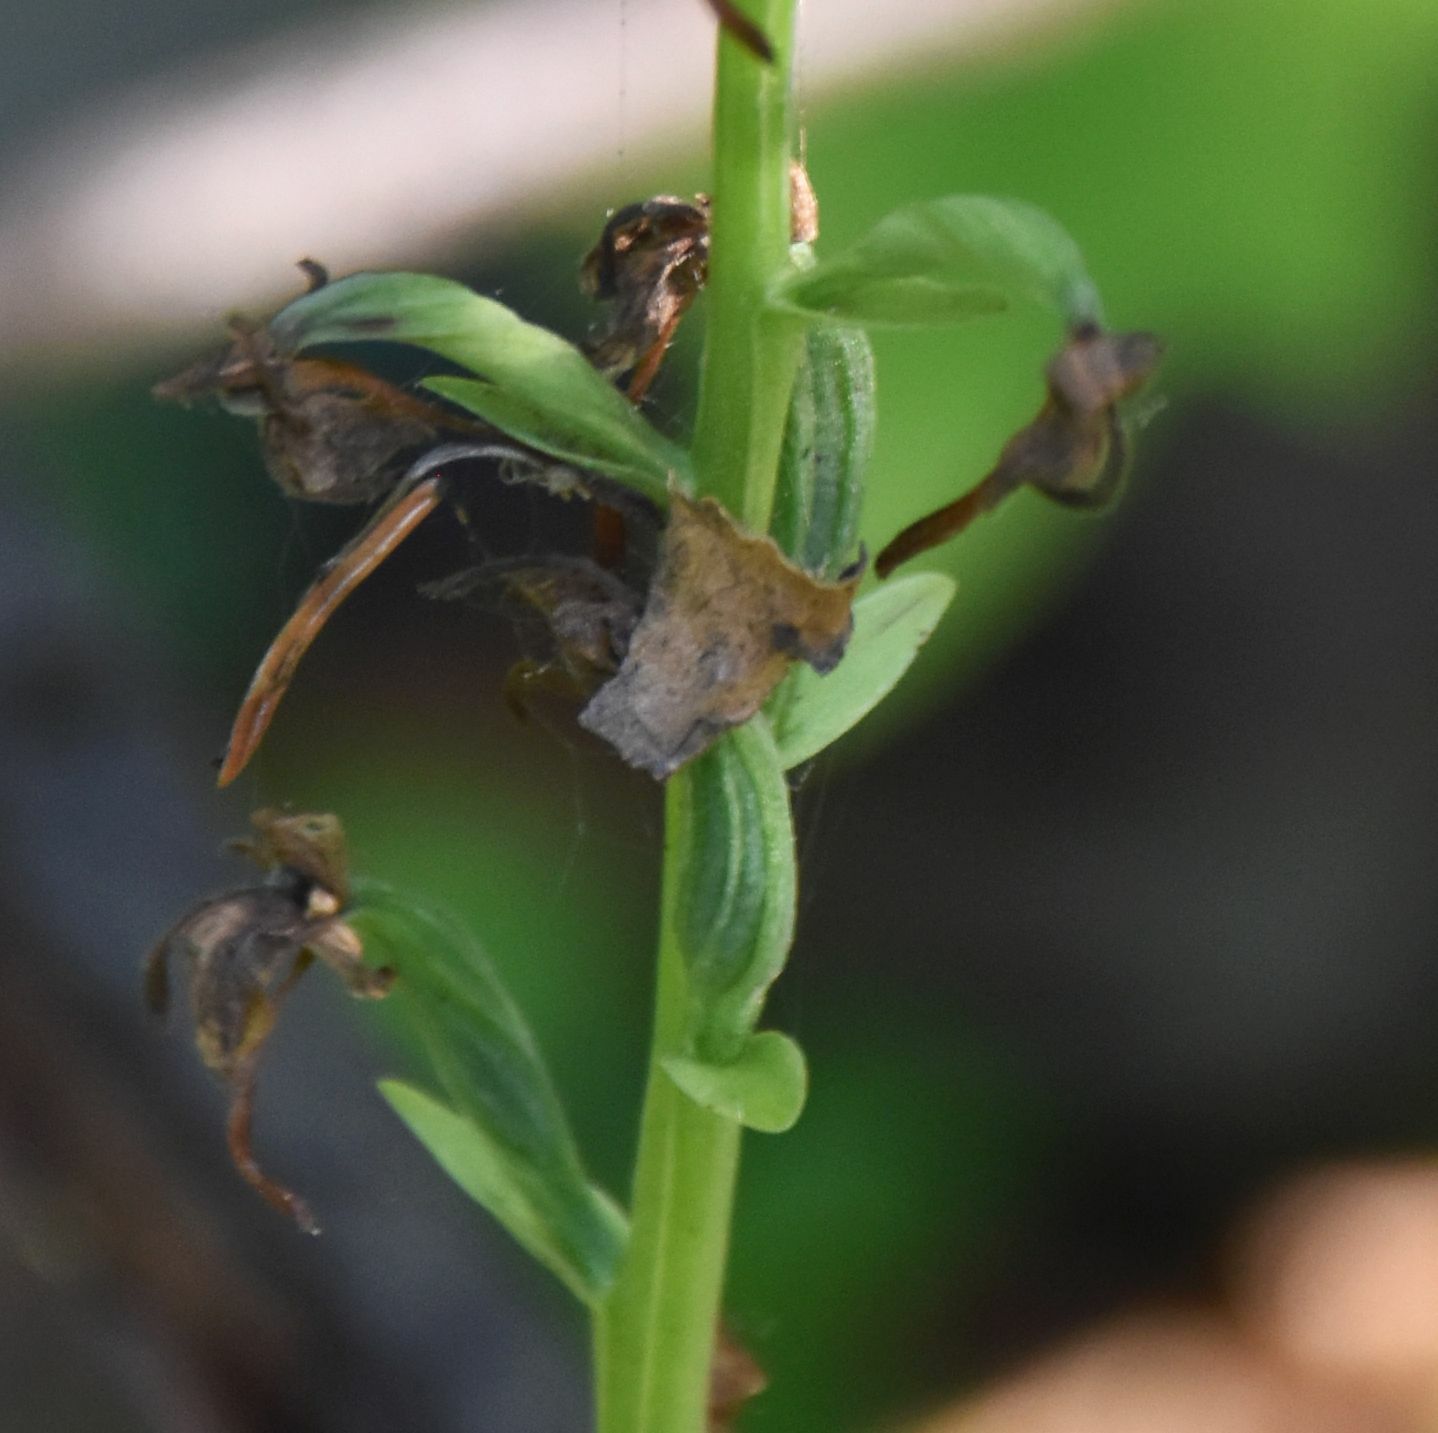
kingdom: Plantae
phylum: Tracheophyta
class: Liliopsida
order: Asparagales
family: Orchidaceae
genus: Platanthera
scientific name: Platanthera orbiculata
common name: Large round-leaved orchid
